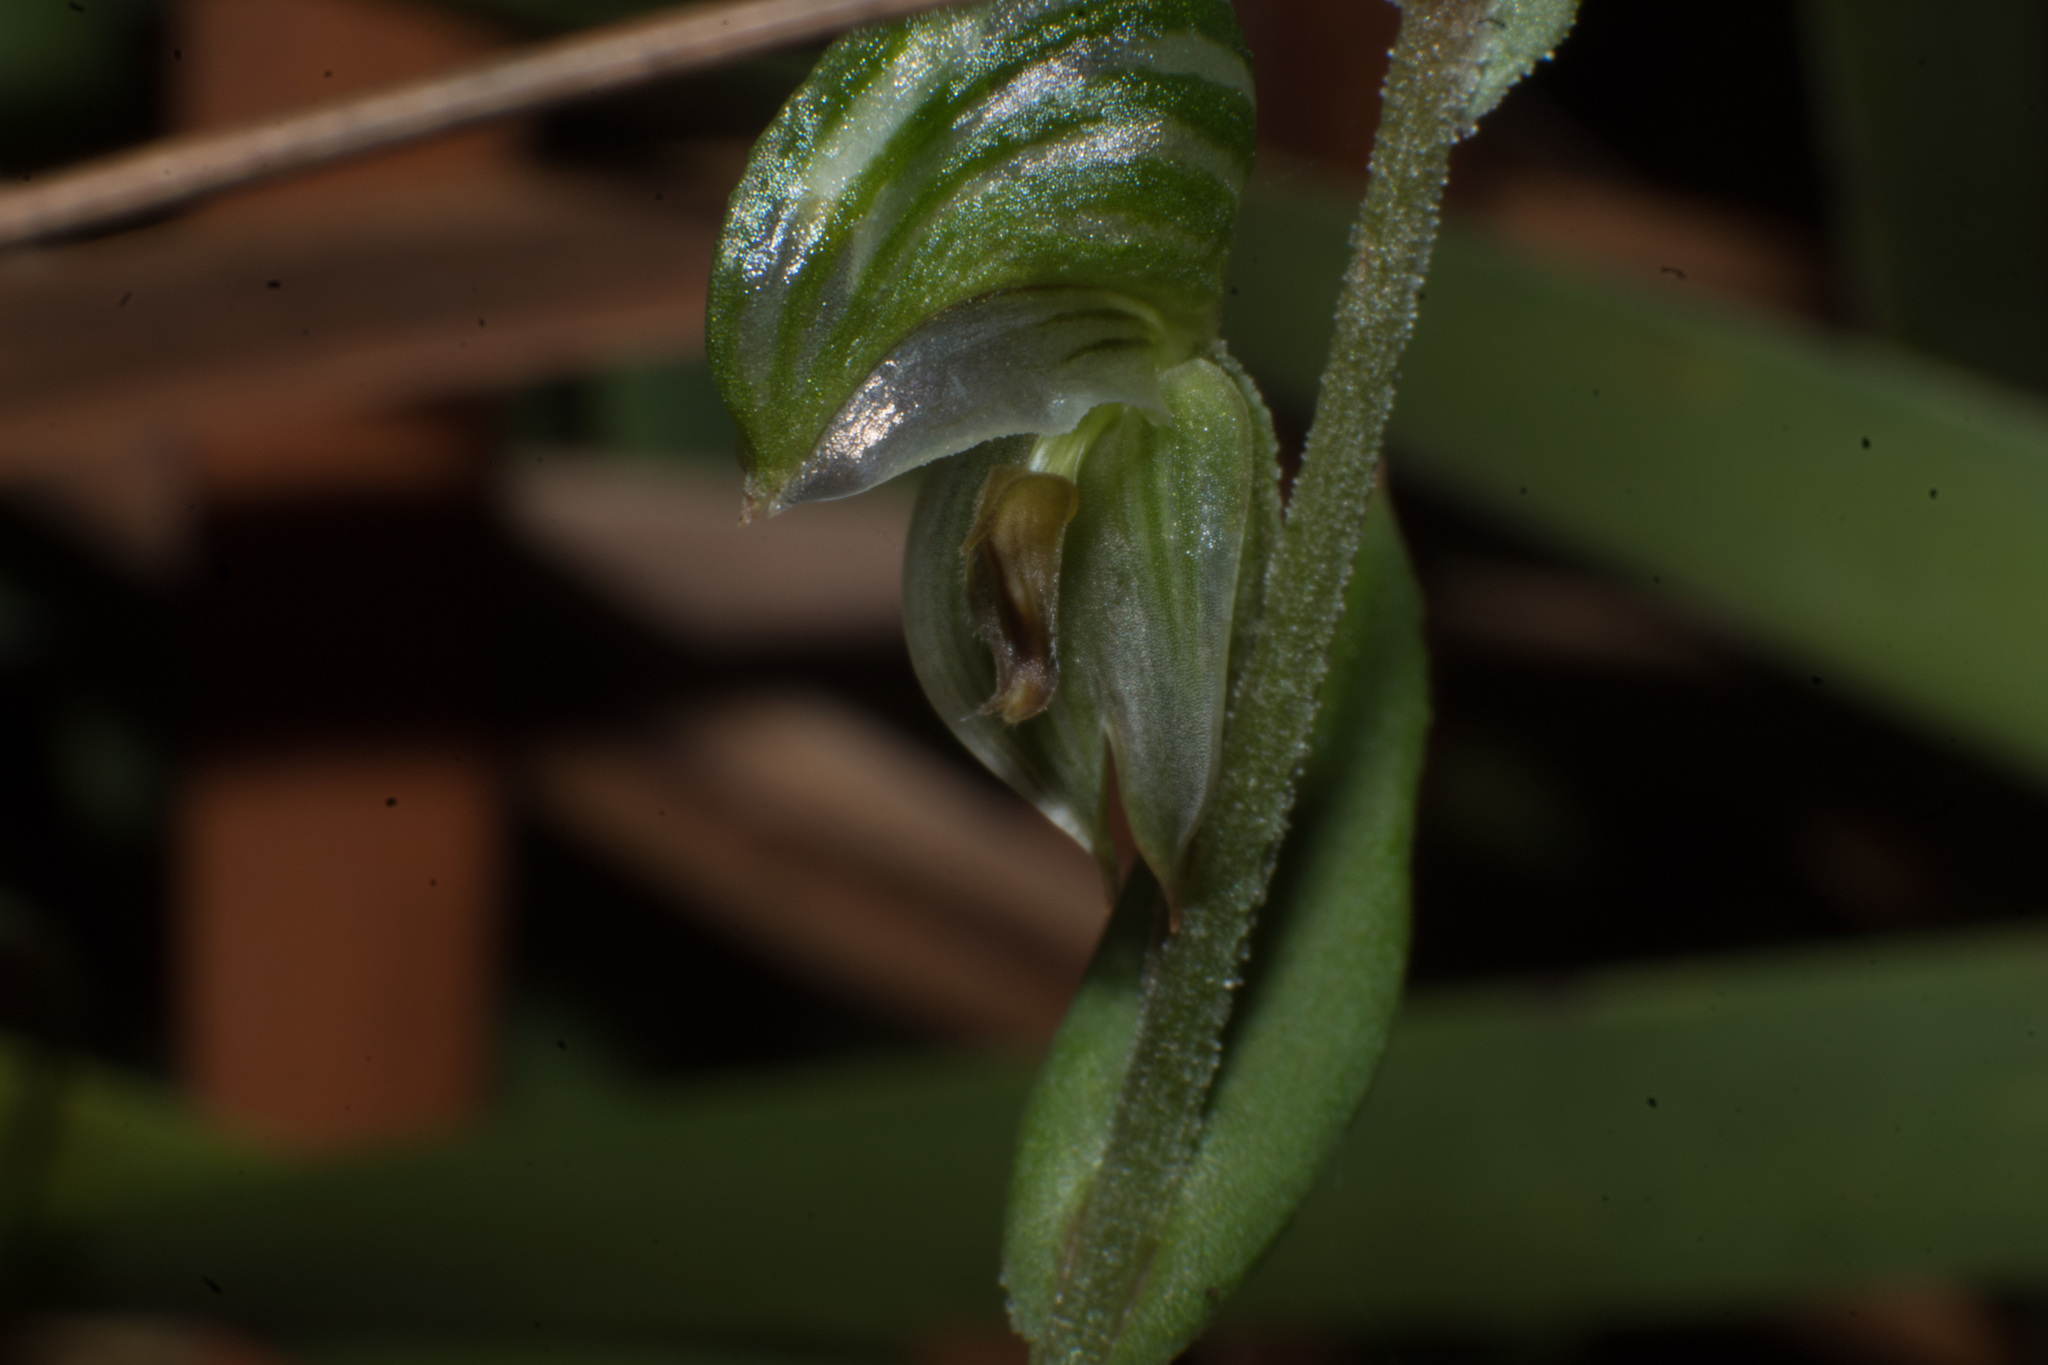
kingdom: Plantae
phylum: Tracheophyta
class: Liliopsida
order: Asparagales
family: Orchidaceae
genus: Pterostylis
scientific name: Pterostylis vittata
